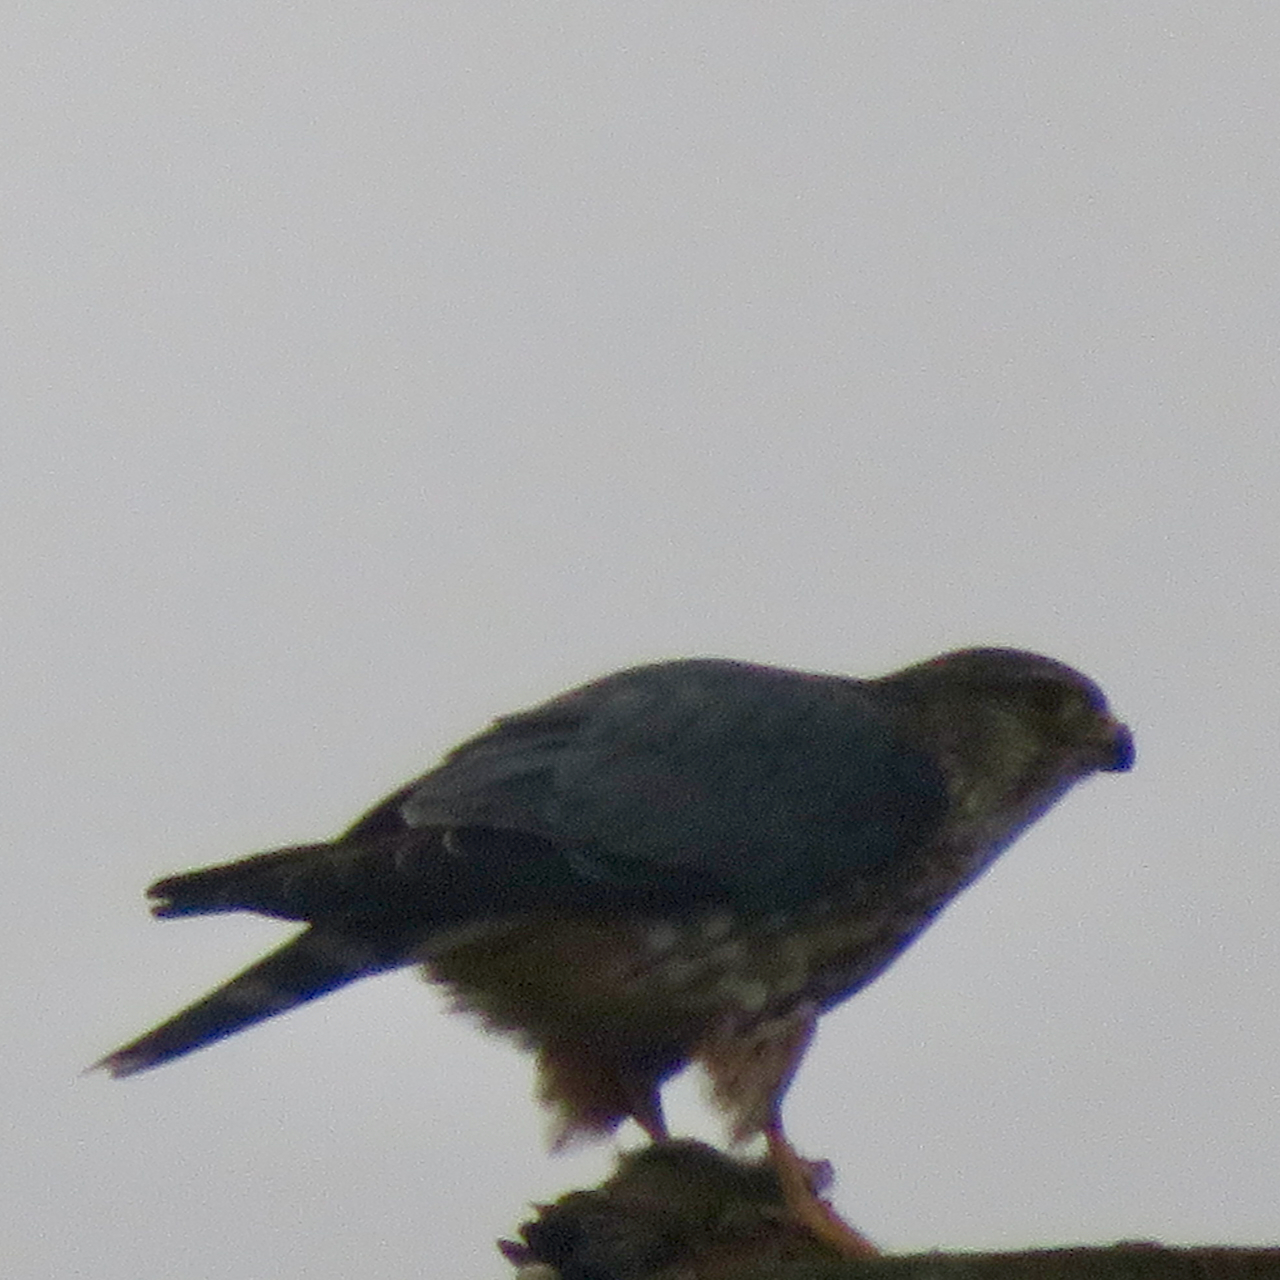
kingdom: Animalia
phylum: Chordata
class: Aves
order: Falconiformes
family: Falconidae
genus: Falco
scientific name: Falco columbarius
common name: Merlin
